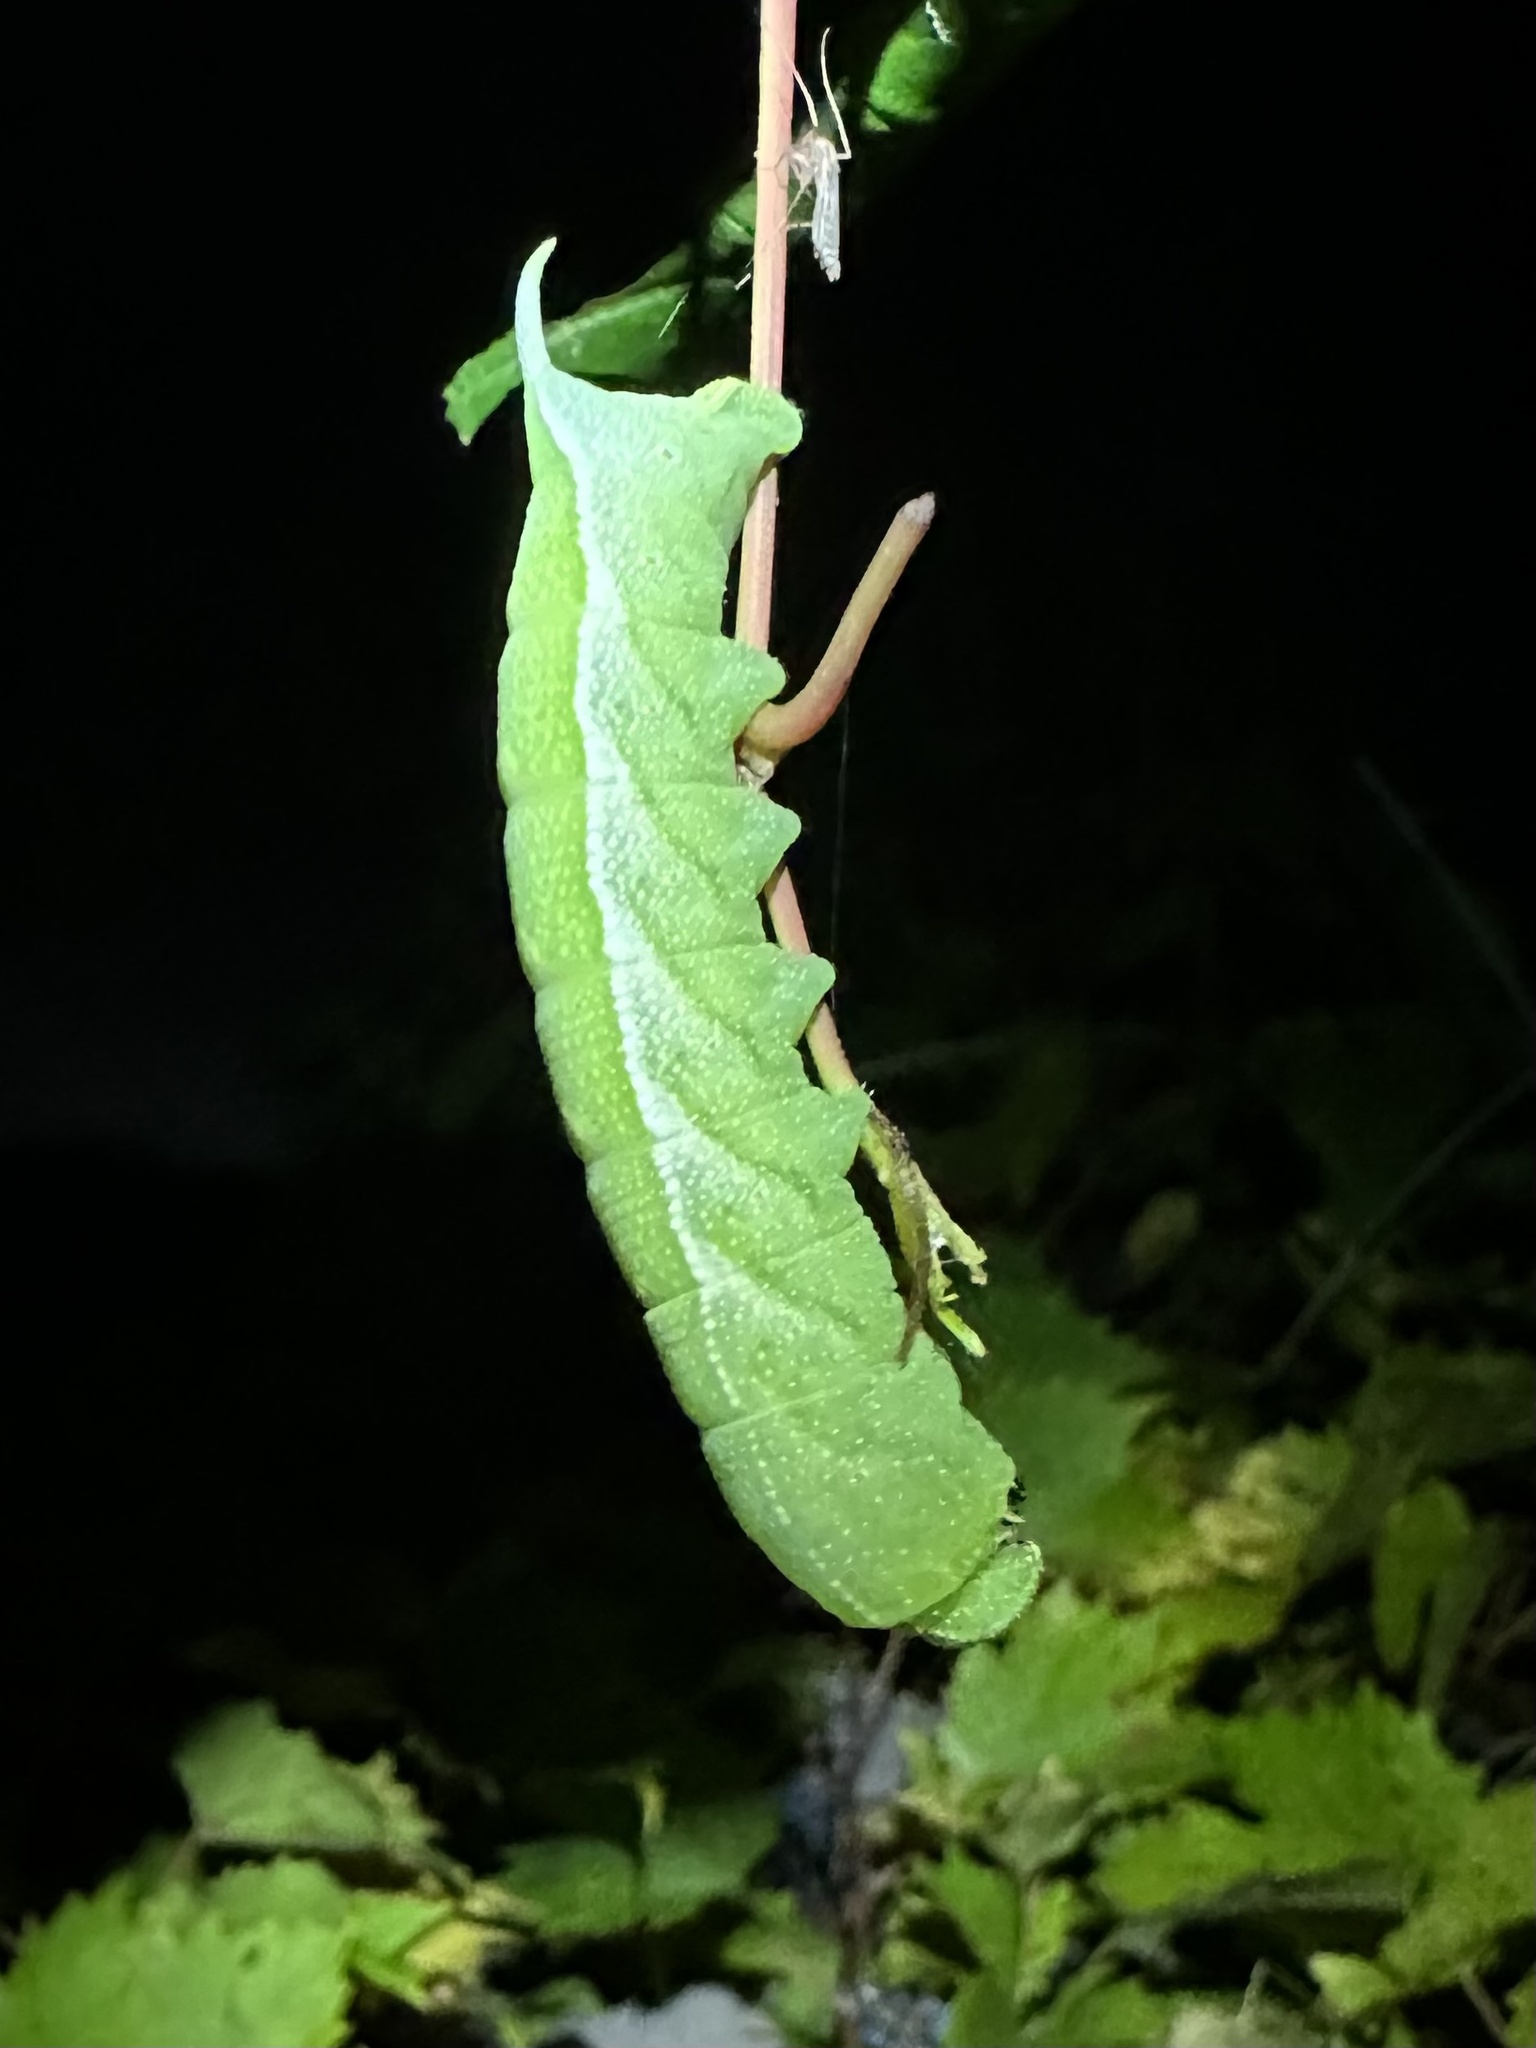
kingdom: Animalia
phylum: Arthropoda
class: Insecta
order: Lepidoptera
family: Sphingidae
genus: Darapsa
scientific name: Darapsa myron
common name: Hog sphinx
